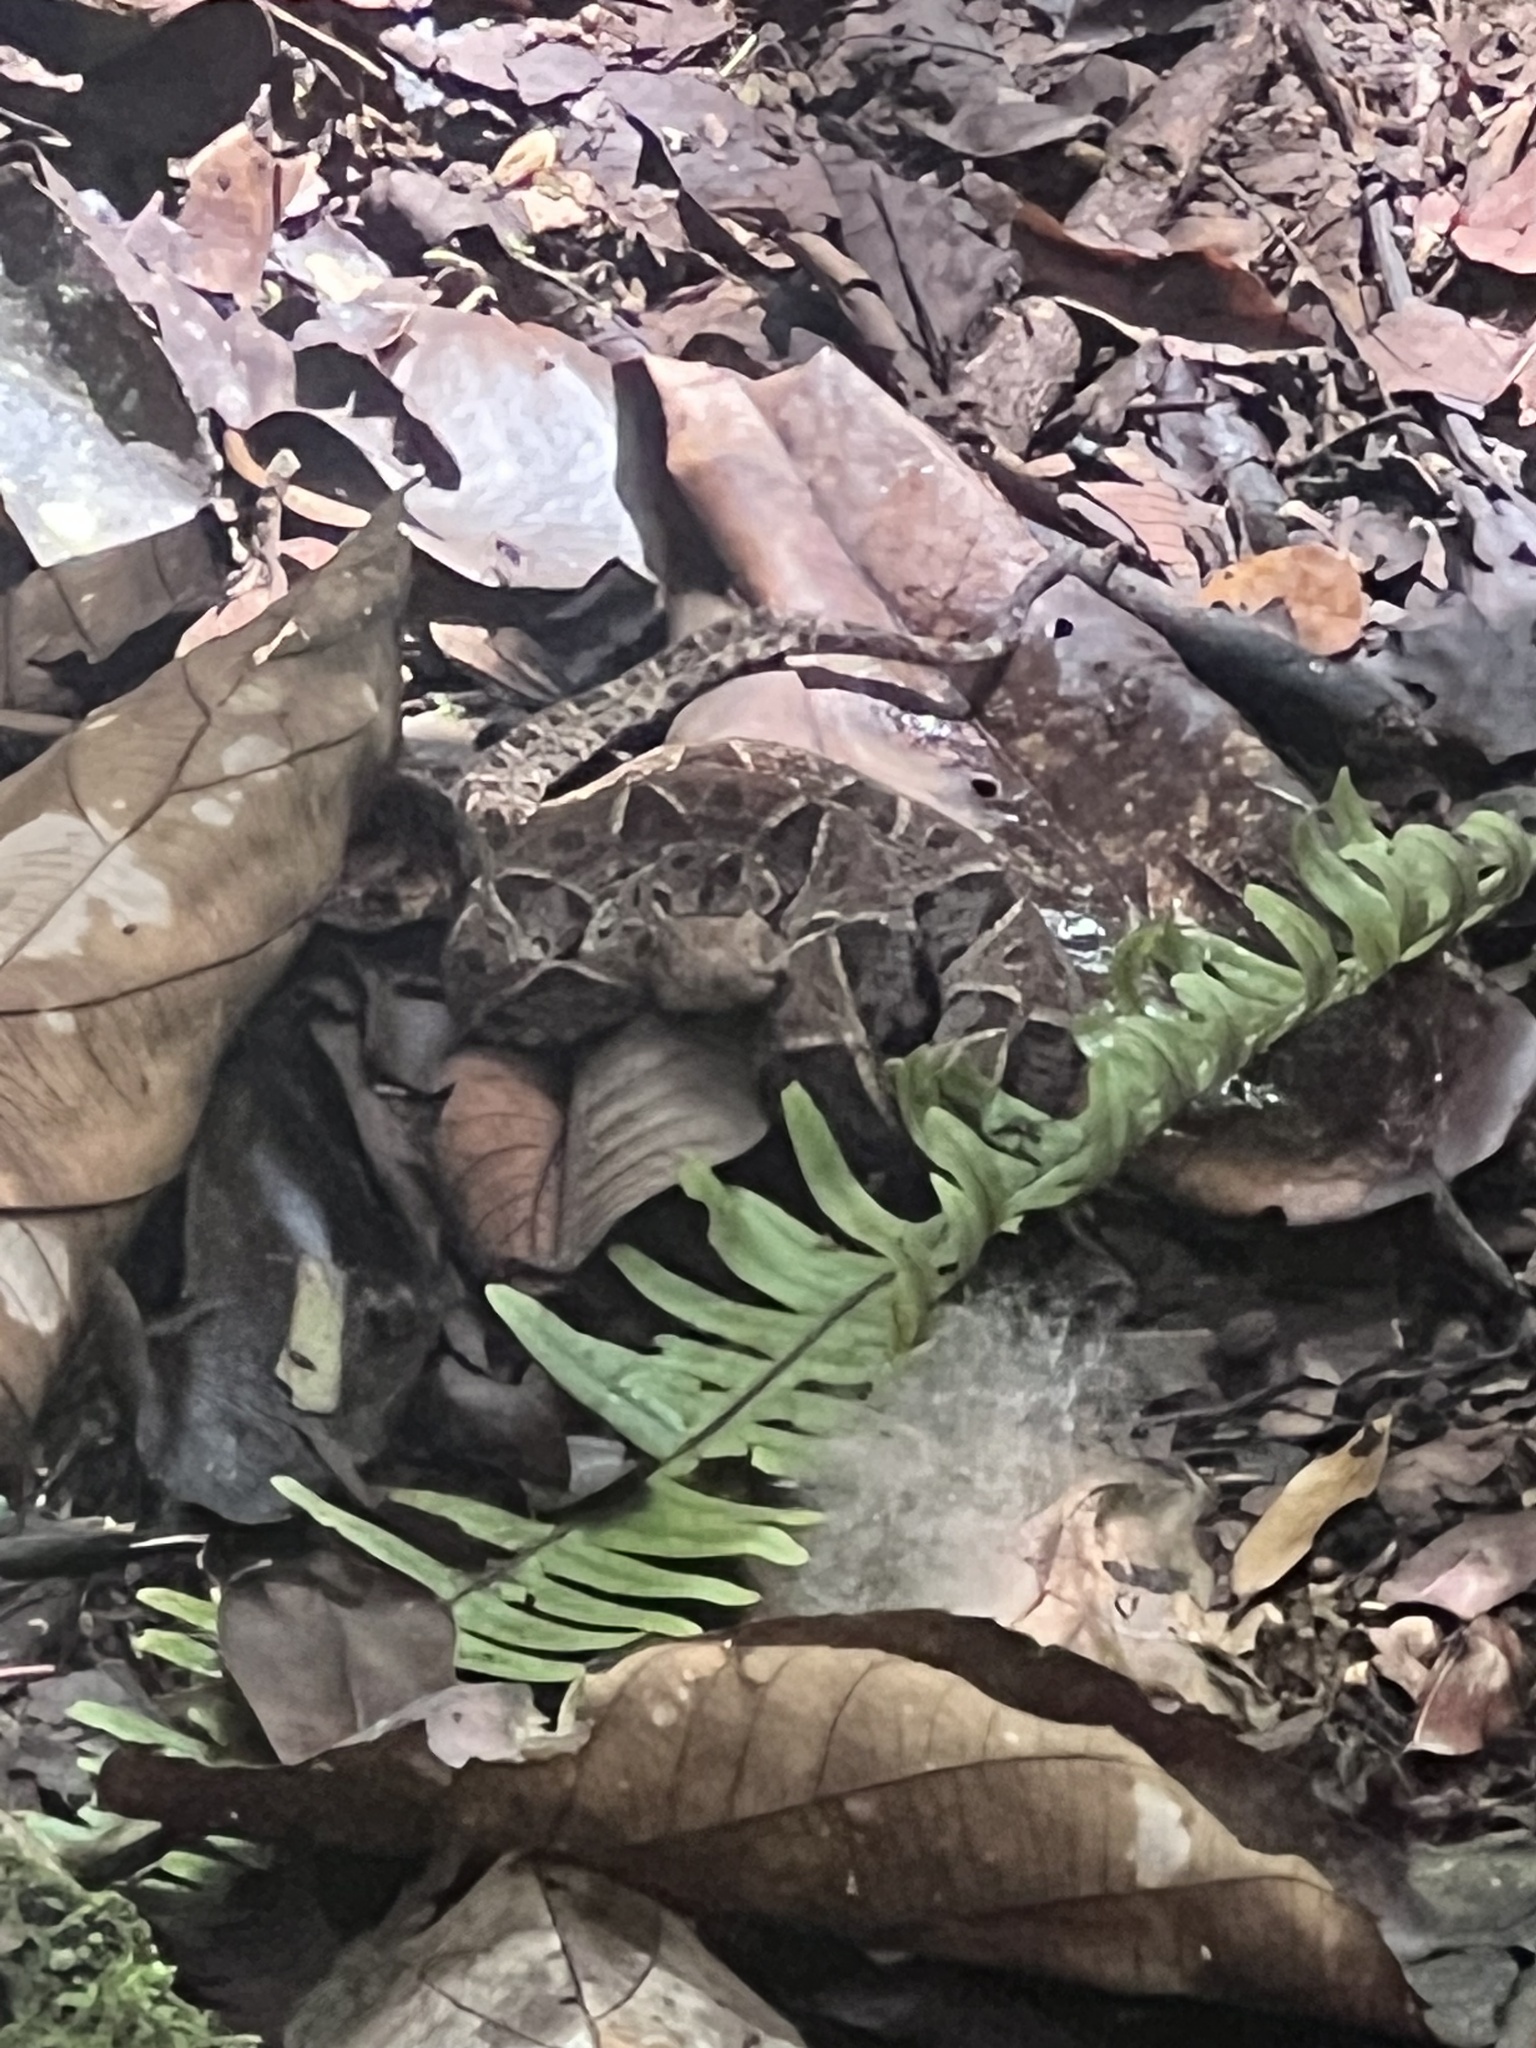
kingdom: Animalia
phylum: Chordata
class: Squamata
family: Viperidae
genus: Bothrops
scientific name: Bothrops asper
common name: Terciopelo
